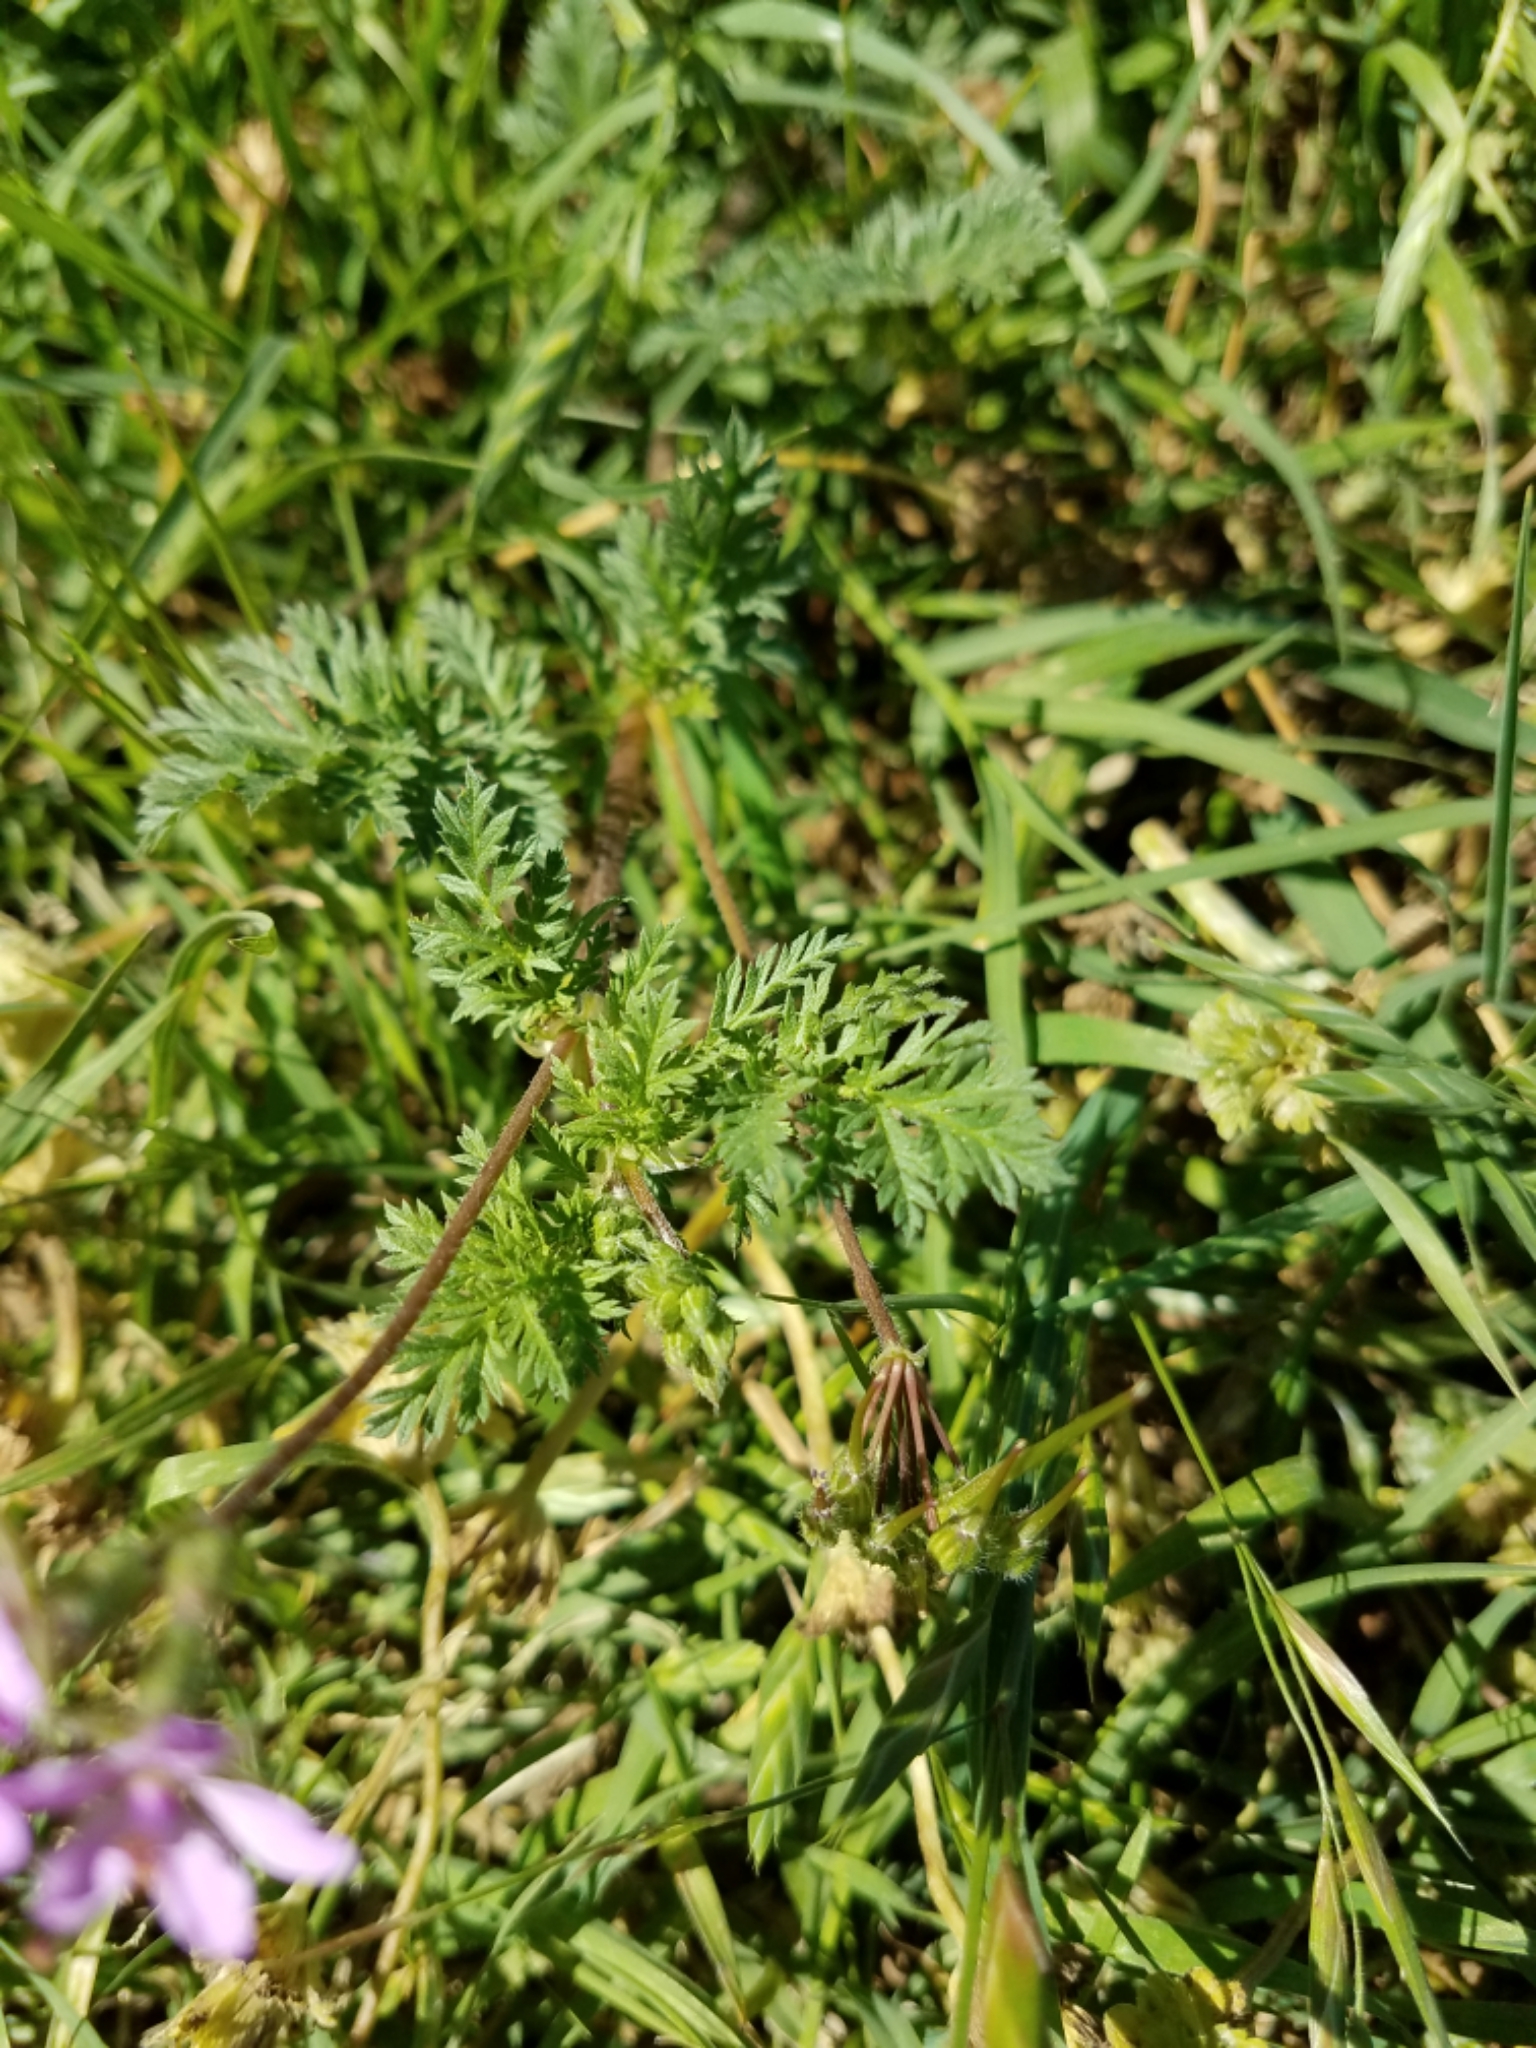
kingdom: Plantae
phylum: Tracheophyta
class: Magnoliopsida
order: Geraniales
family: Geraniaceae
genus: Erodium
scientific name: Erodium cicutarium
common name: Common stork's-bill
